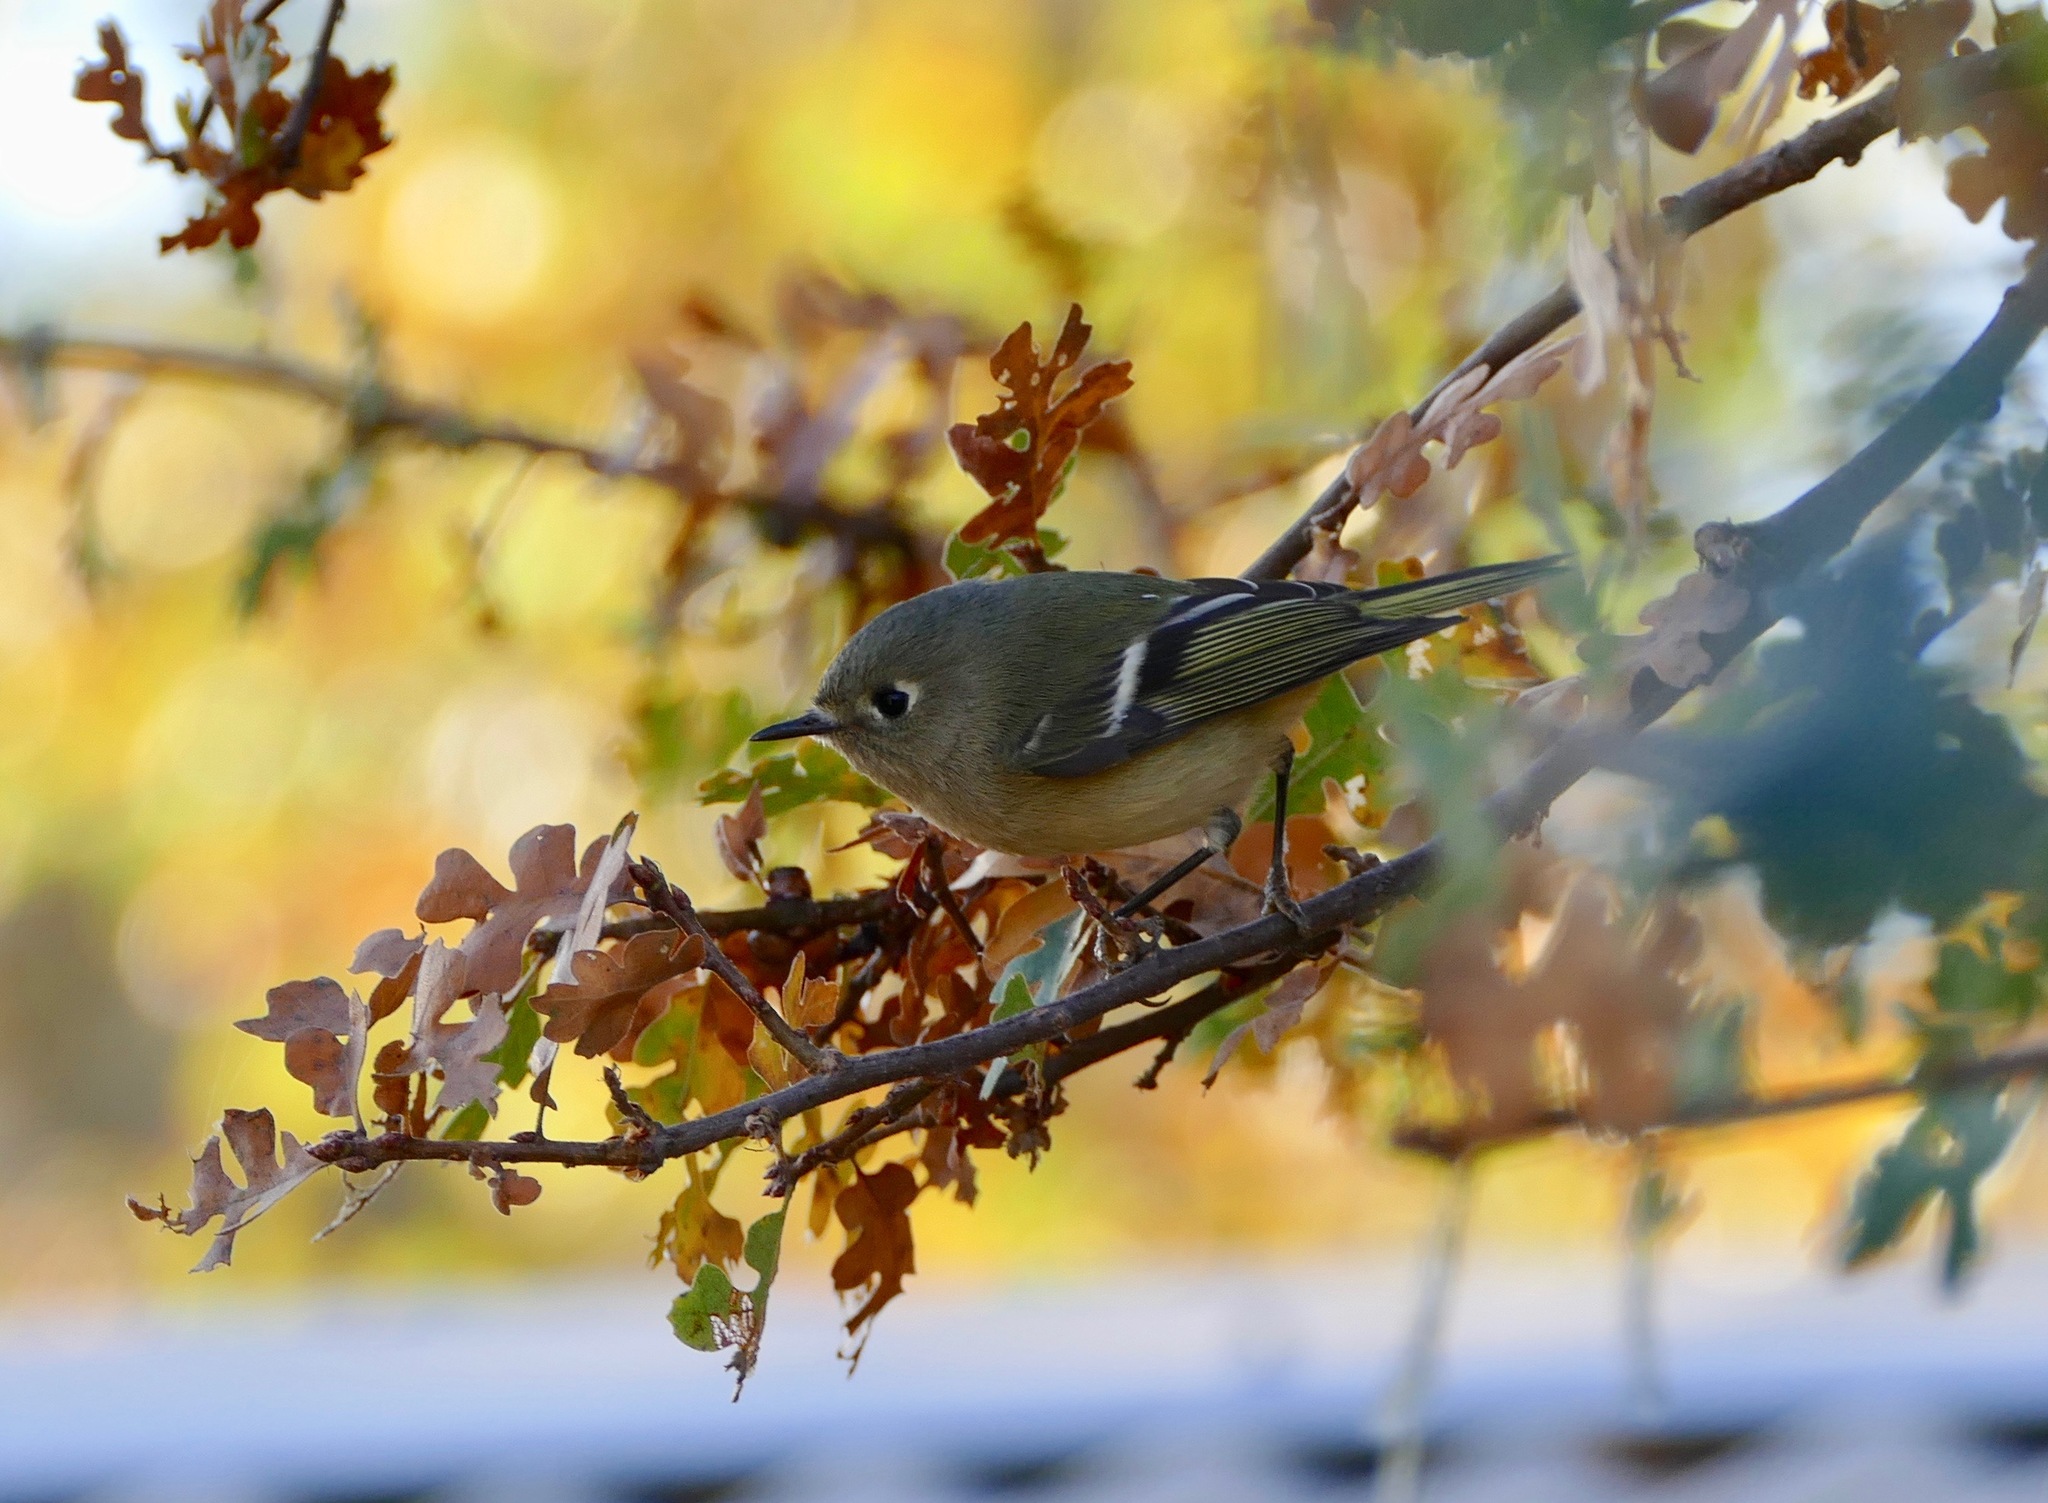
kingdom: Animalia
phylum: Chordata
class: Aves
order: Passeriformes
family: Regulidae
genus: Regulus
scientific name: Regulus calendula
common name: Ruby-crowned kinglet
